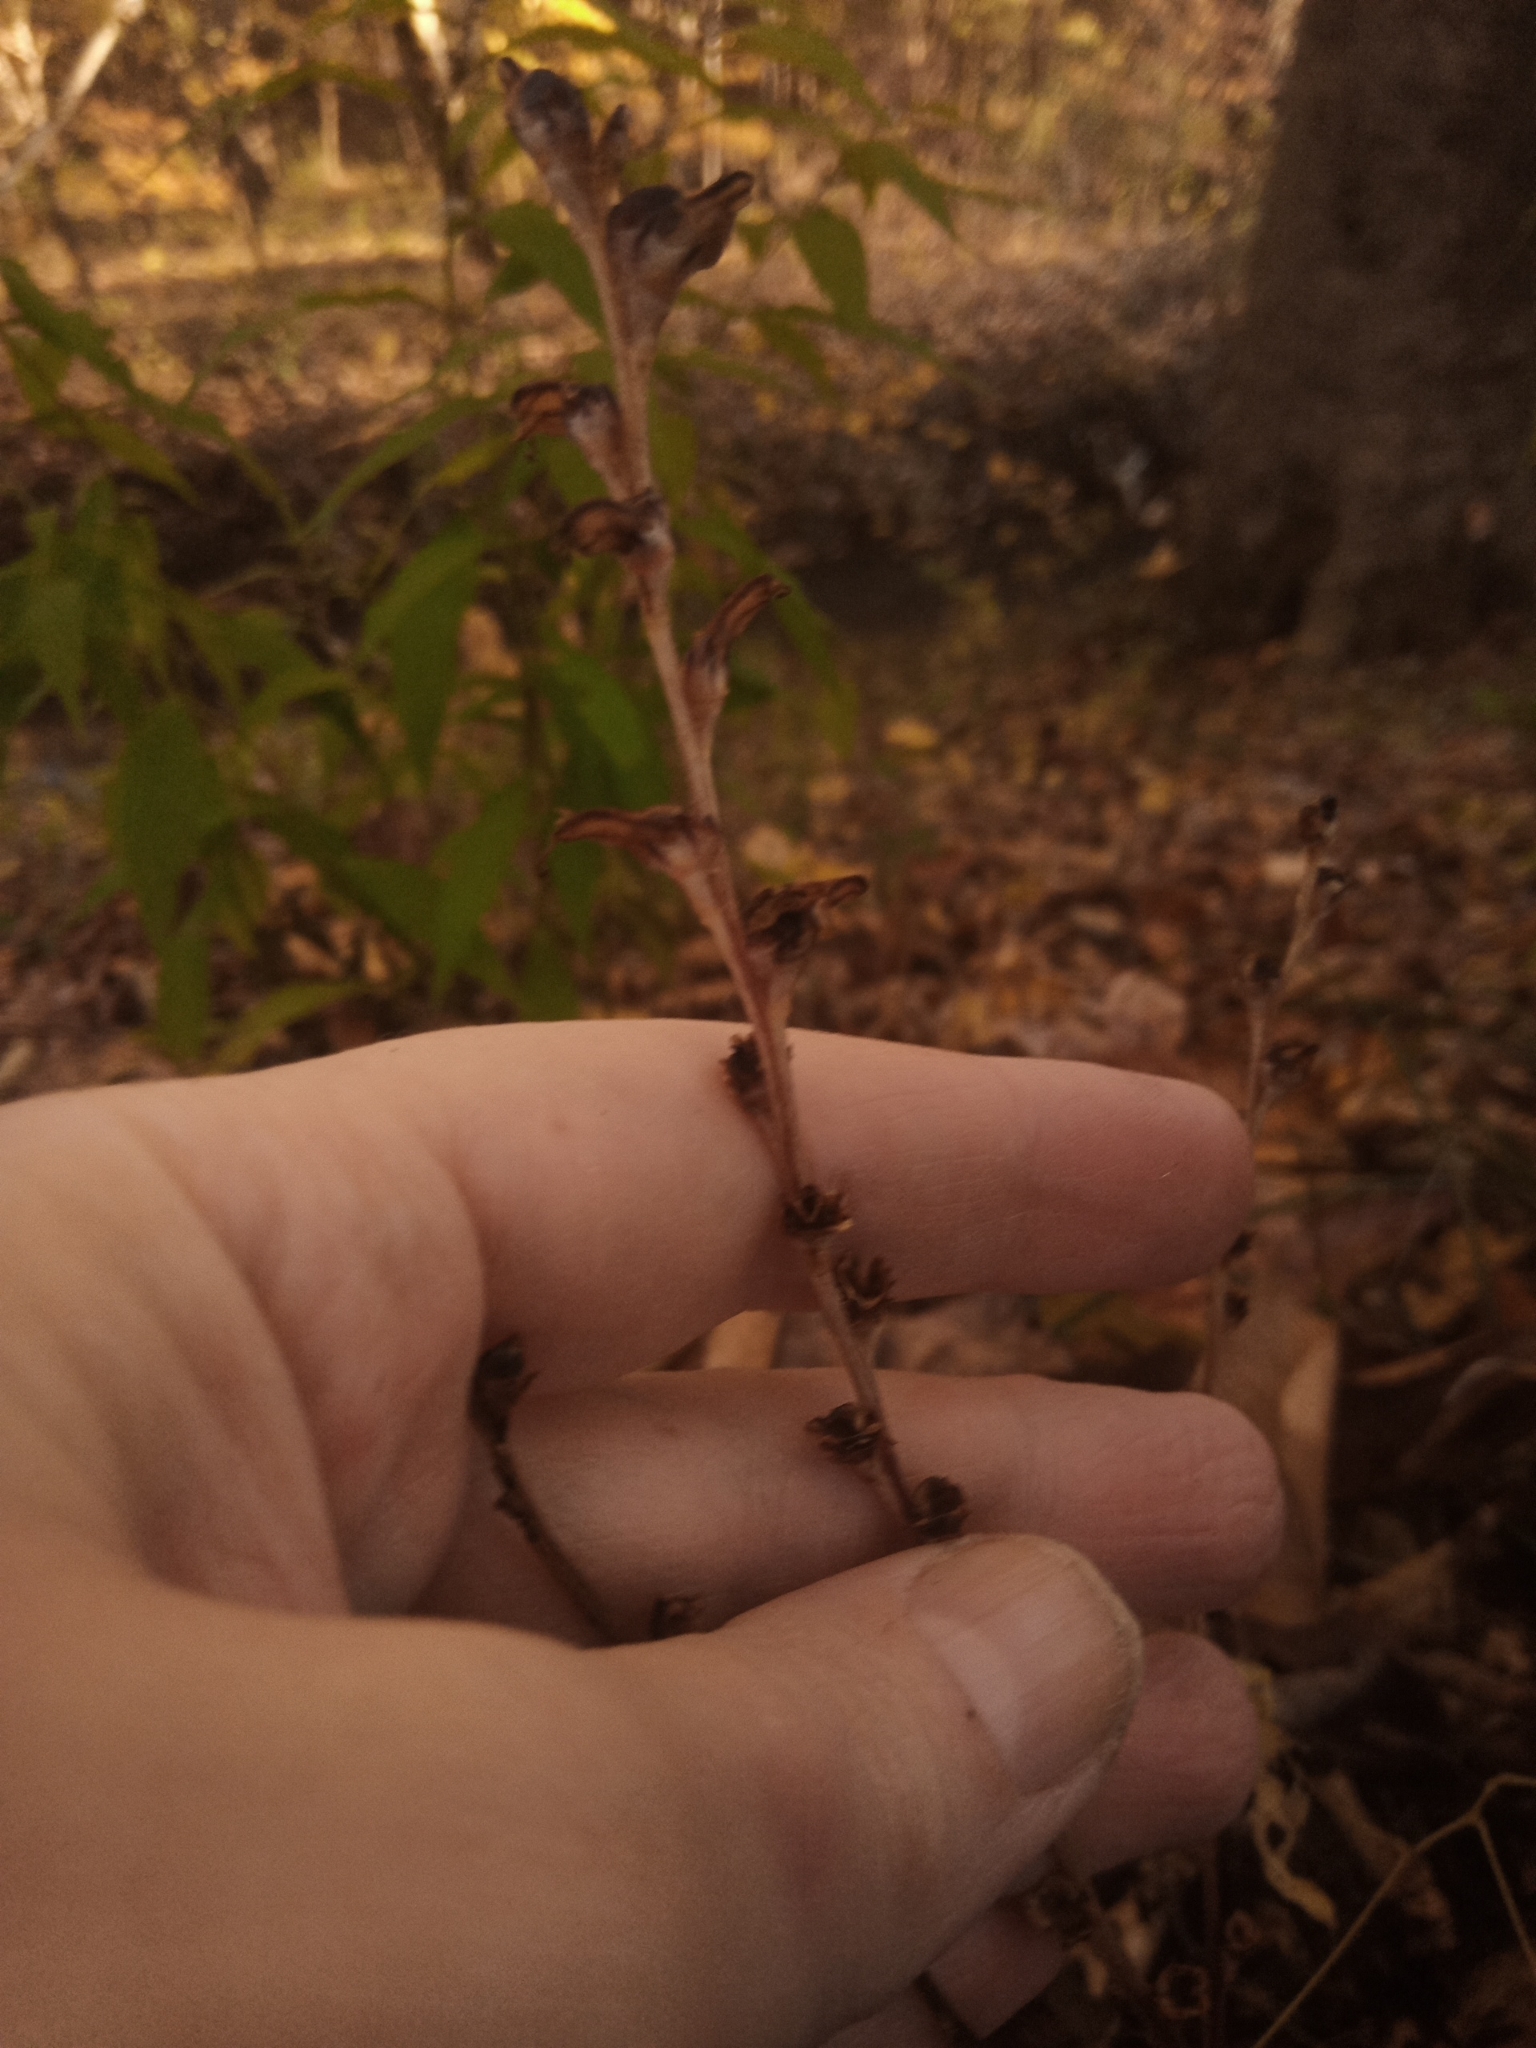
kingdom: Plantae
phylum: Tracheophyta
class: Magnoliopsida
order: Lamiales
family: Orobanchaceae
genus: Epifagus
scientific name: Epifagus virginiana
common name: Beechdrops
